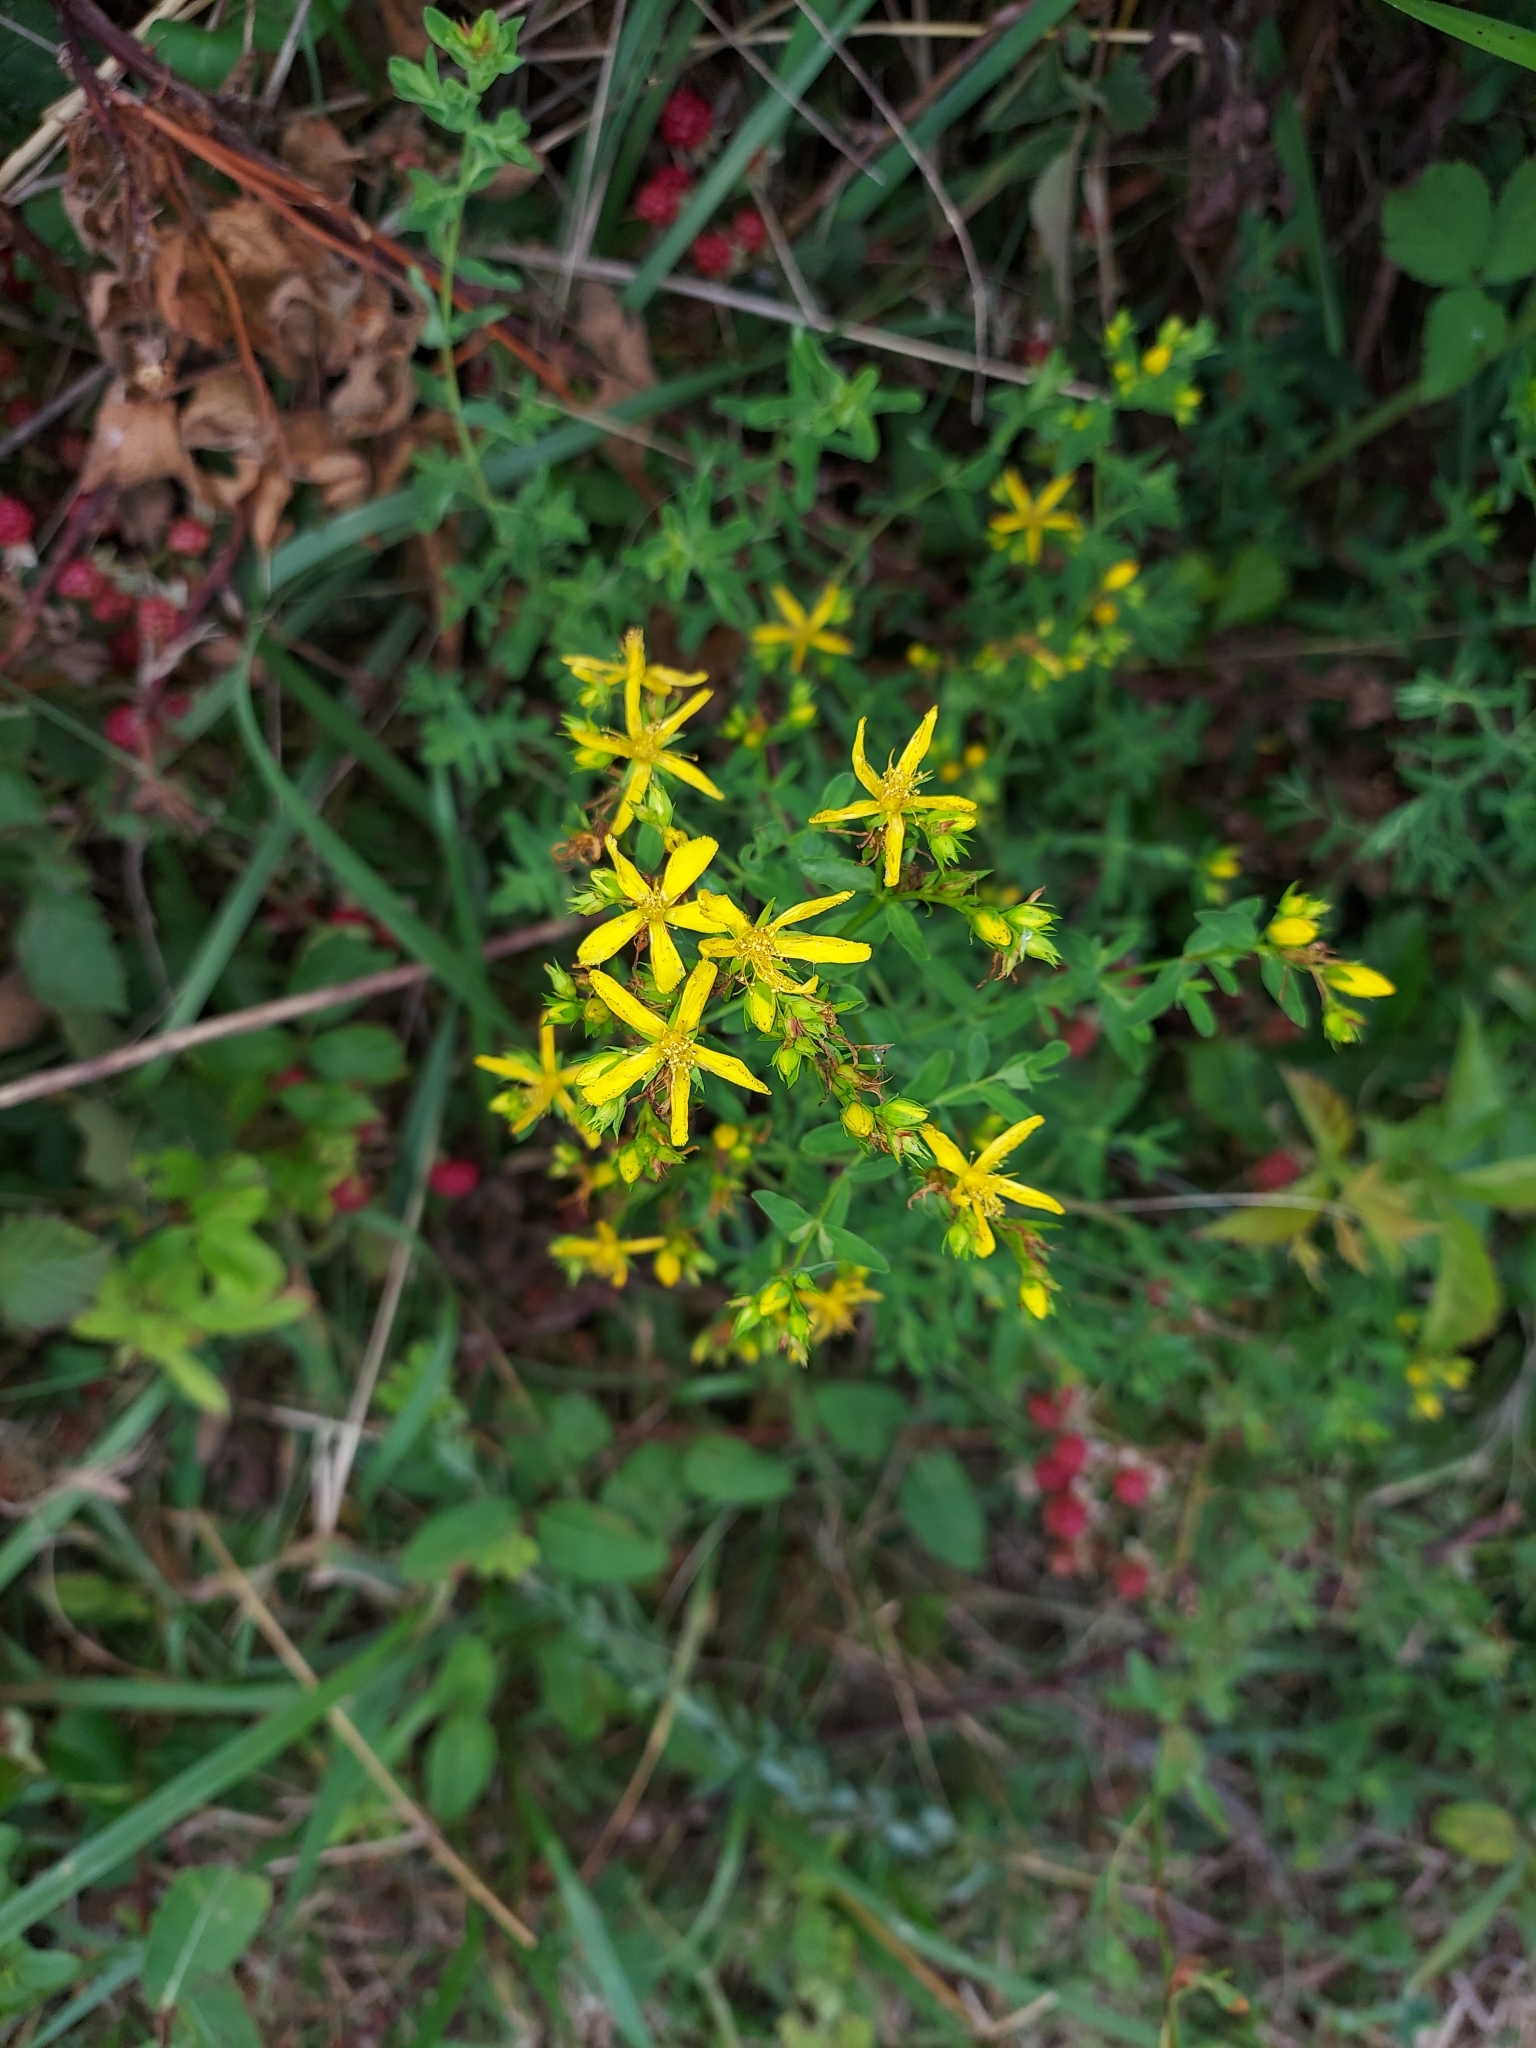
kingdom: Plantae
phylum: Tracheophyta
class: Magnoliopsida
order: Malpighiales
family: Hypericaceae
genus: Hypericum
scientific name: Hypericum perforatum
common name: Common st. johnswort
